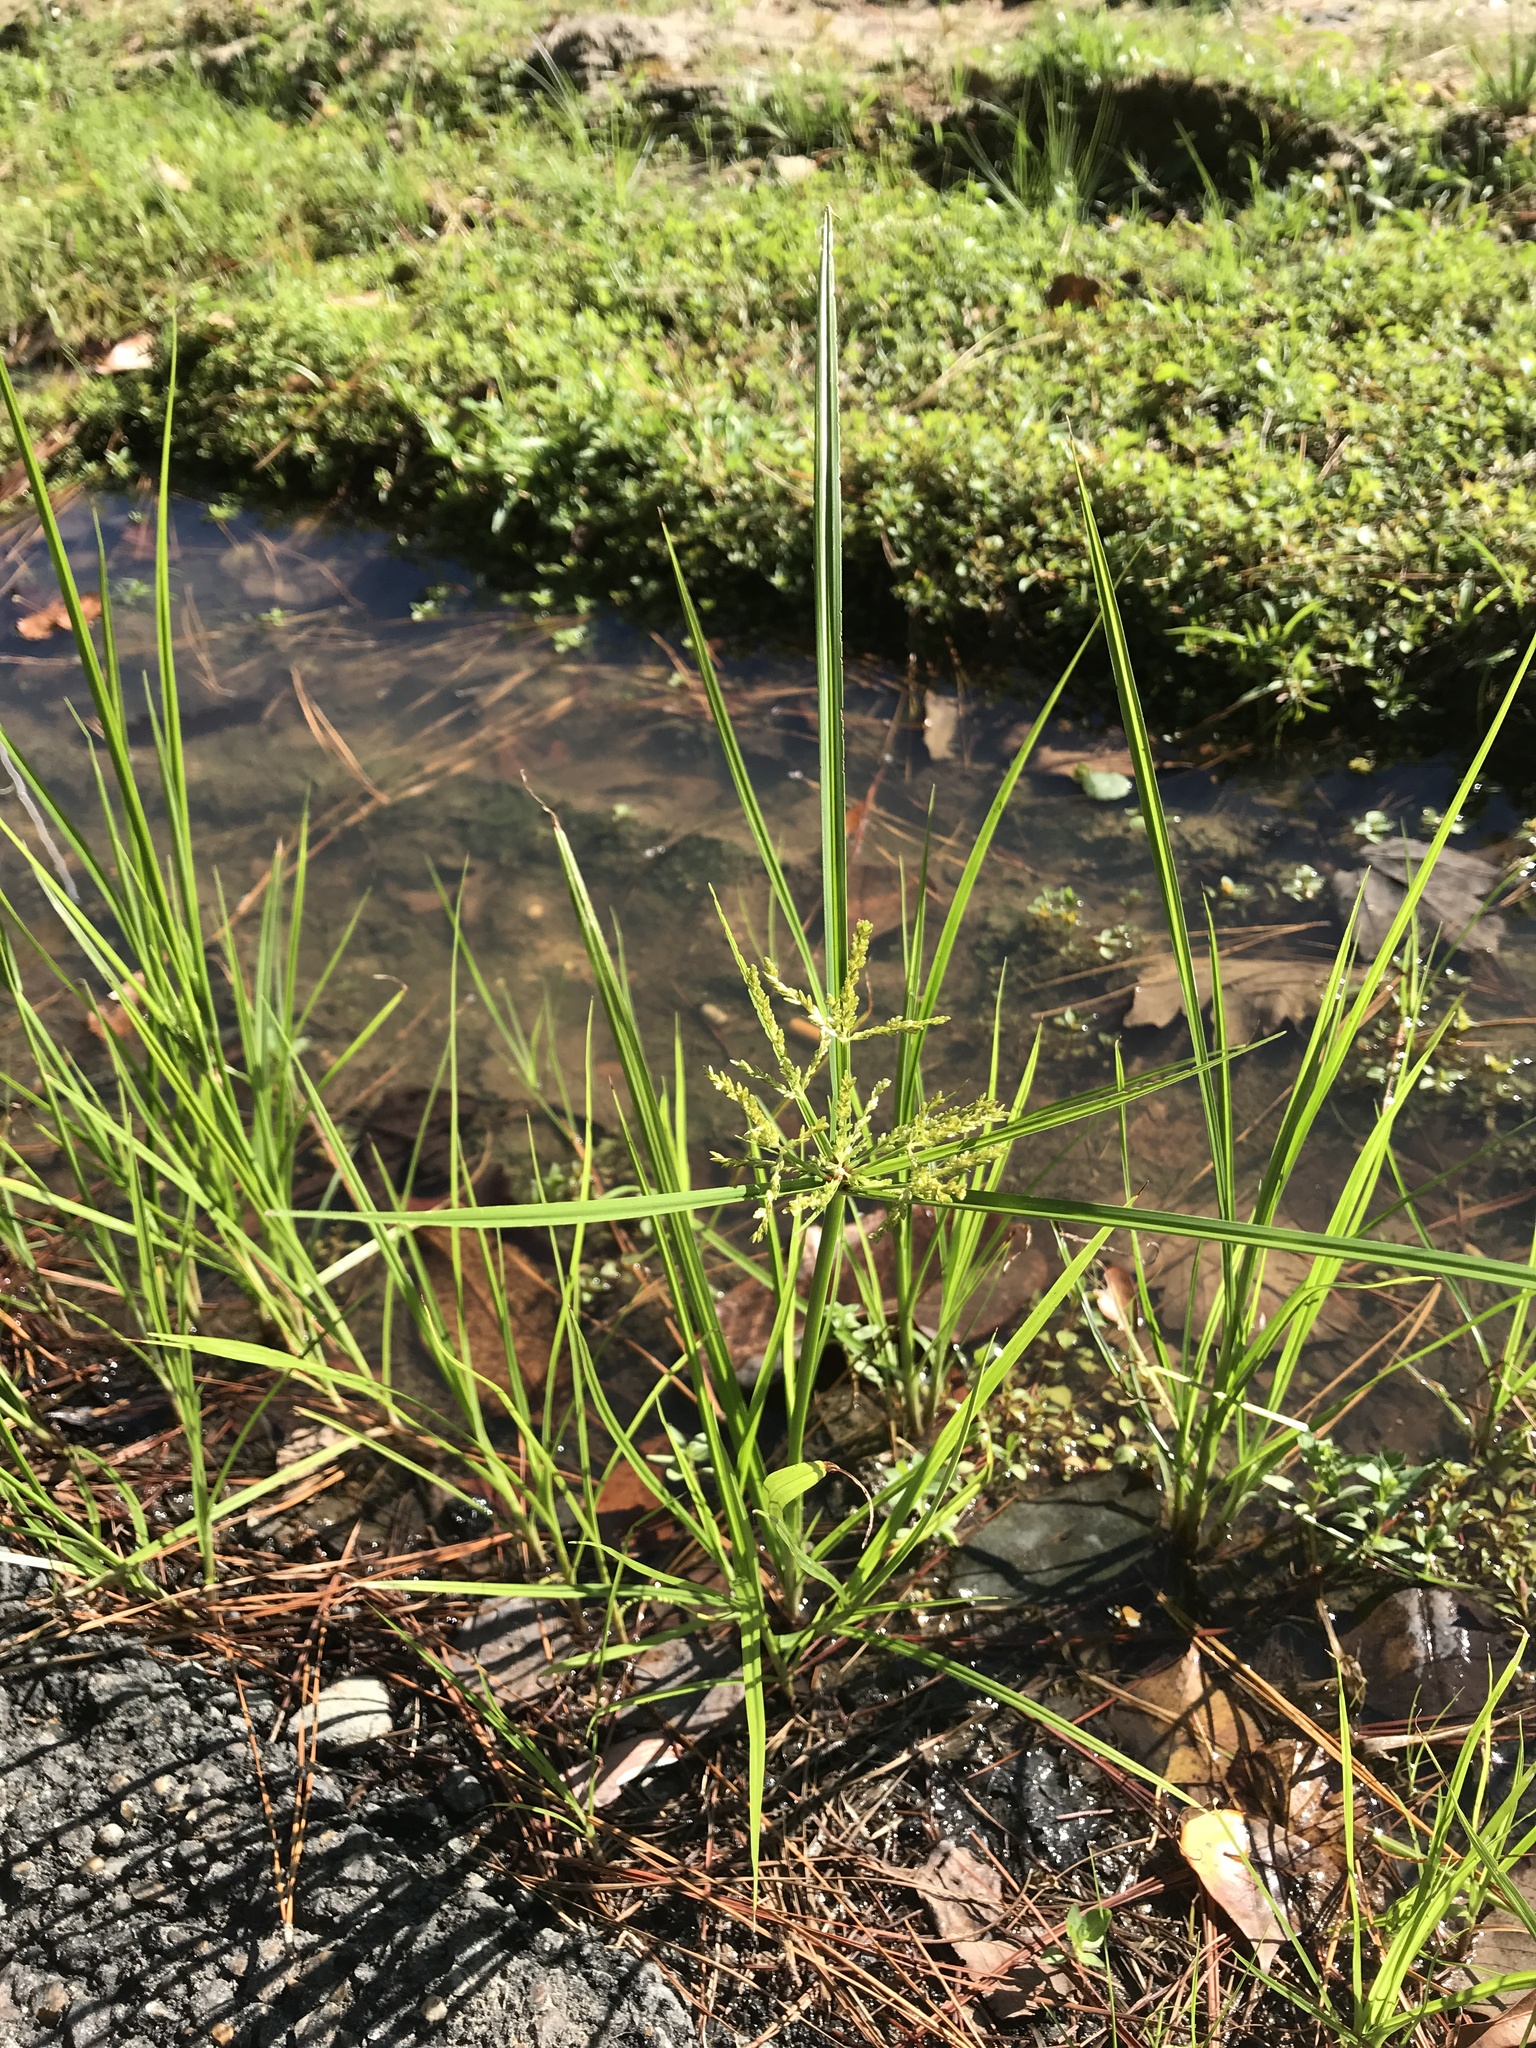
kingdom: Plantae
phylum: Tracheophyta
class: Liliopsida
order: Poales
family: Cyperaceae
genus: Cyperus
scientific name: Cyperus iria
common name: Ricefield flatsedge
